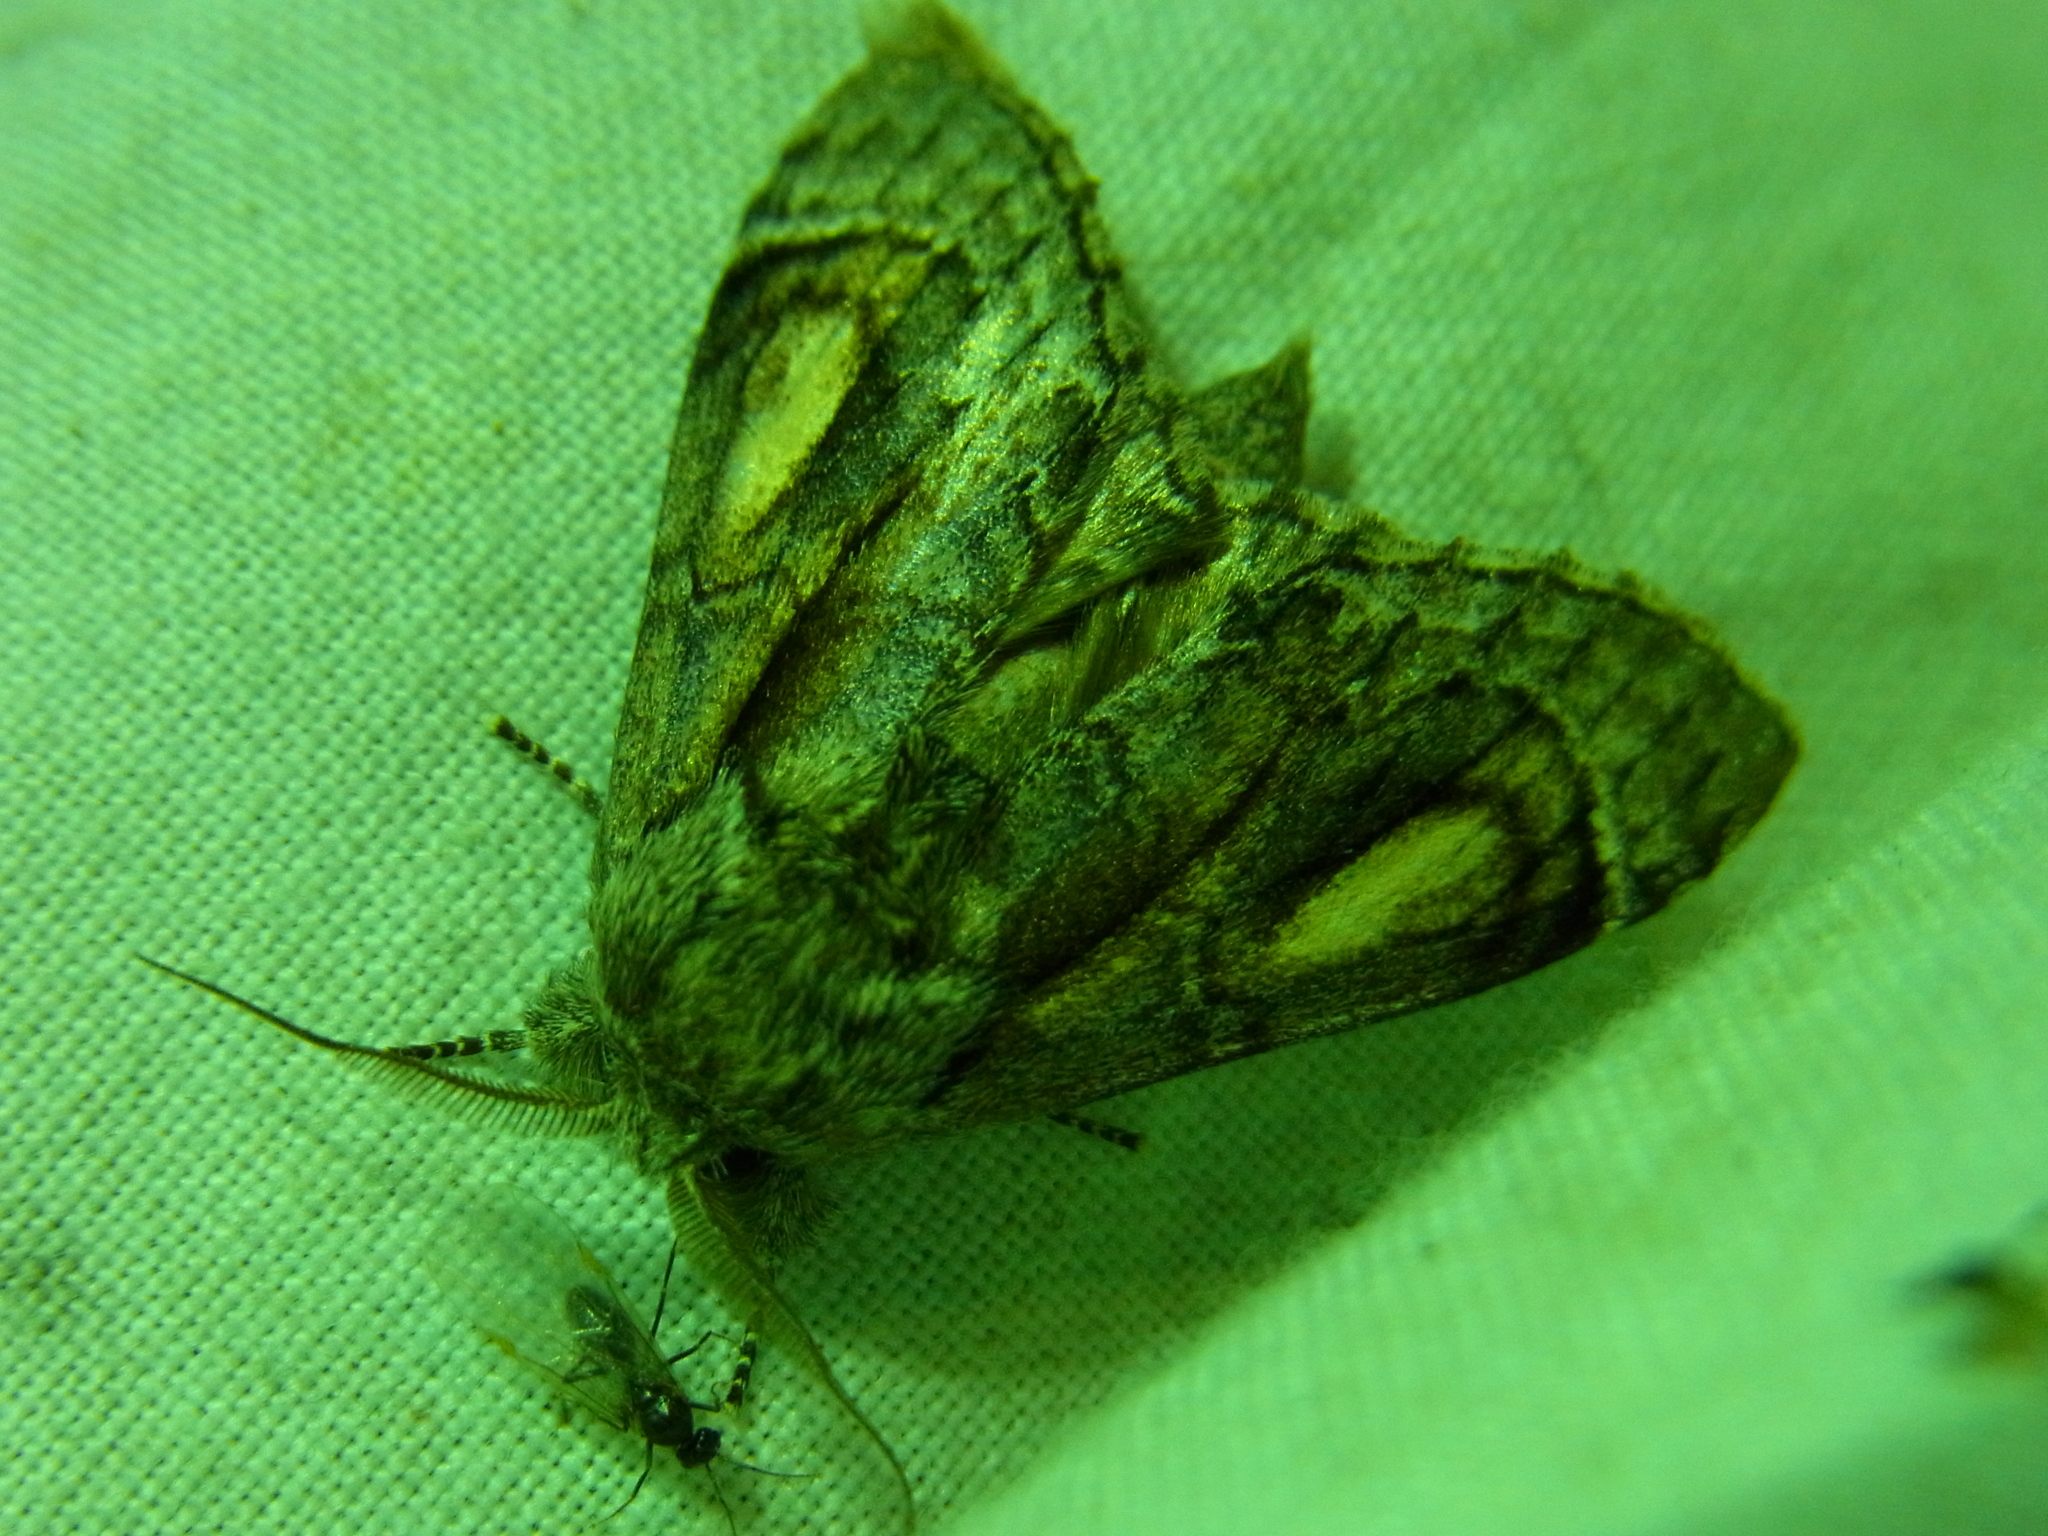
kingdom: Animalia
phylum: Arthropoda
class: Insecta
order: Lepidoptera
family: Notodontidae
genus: Fentonia
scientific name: Fentonia ocypete
